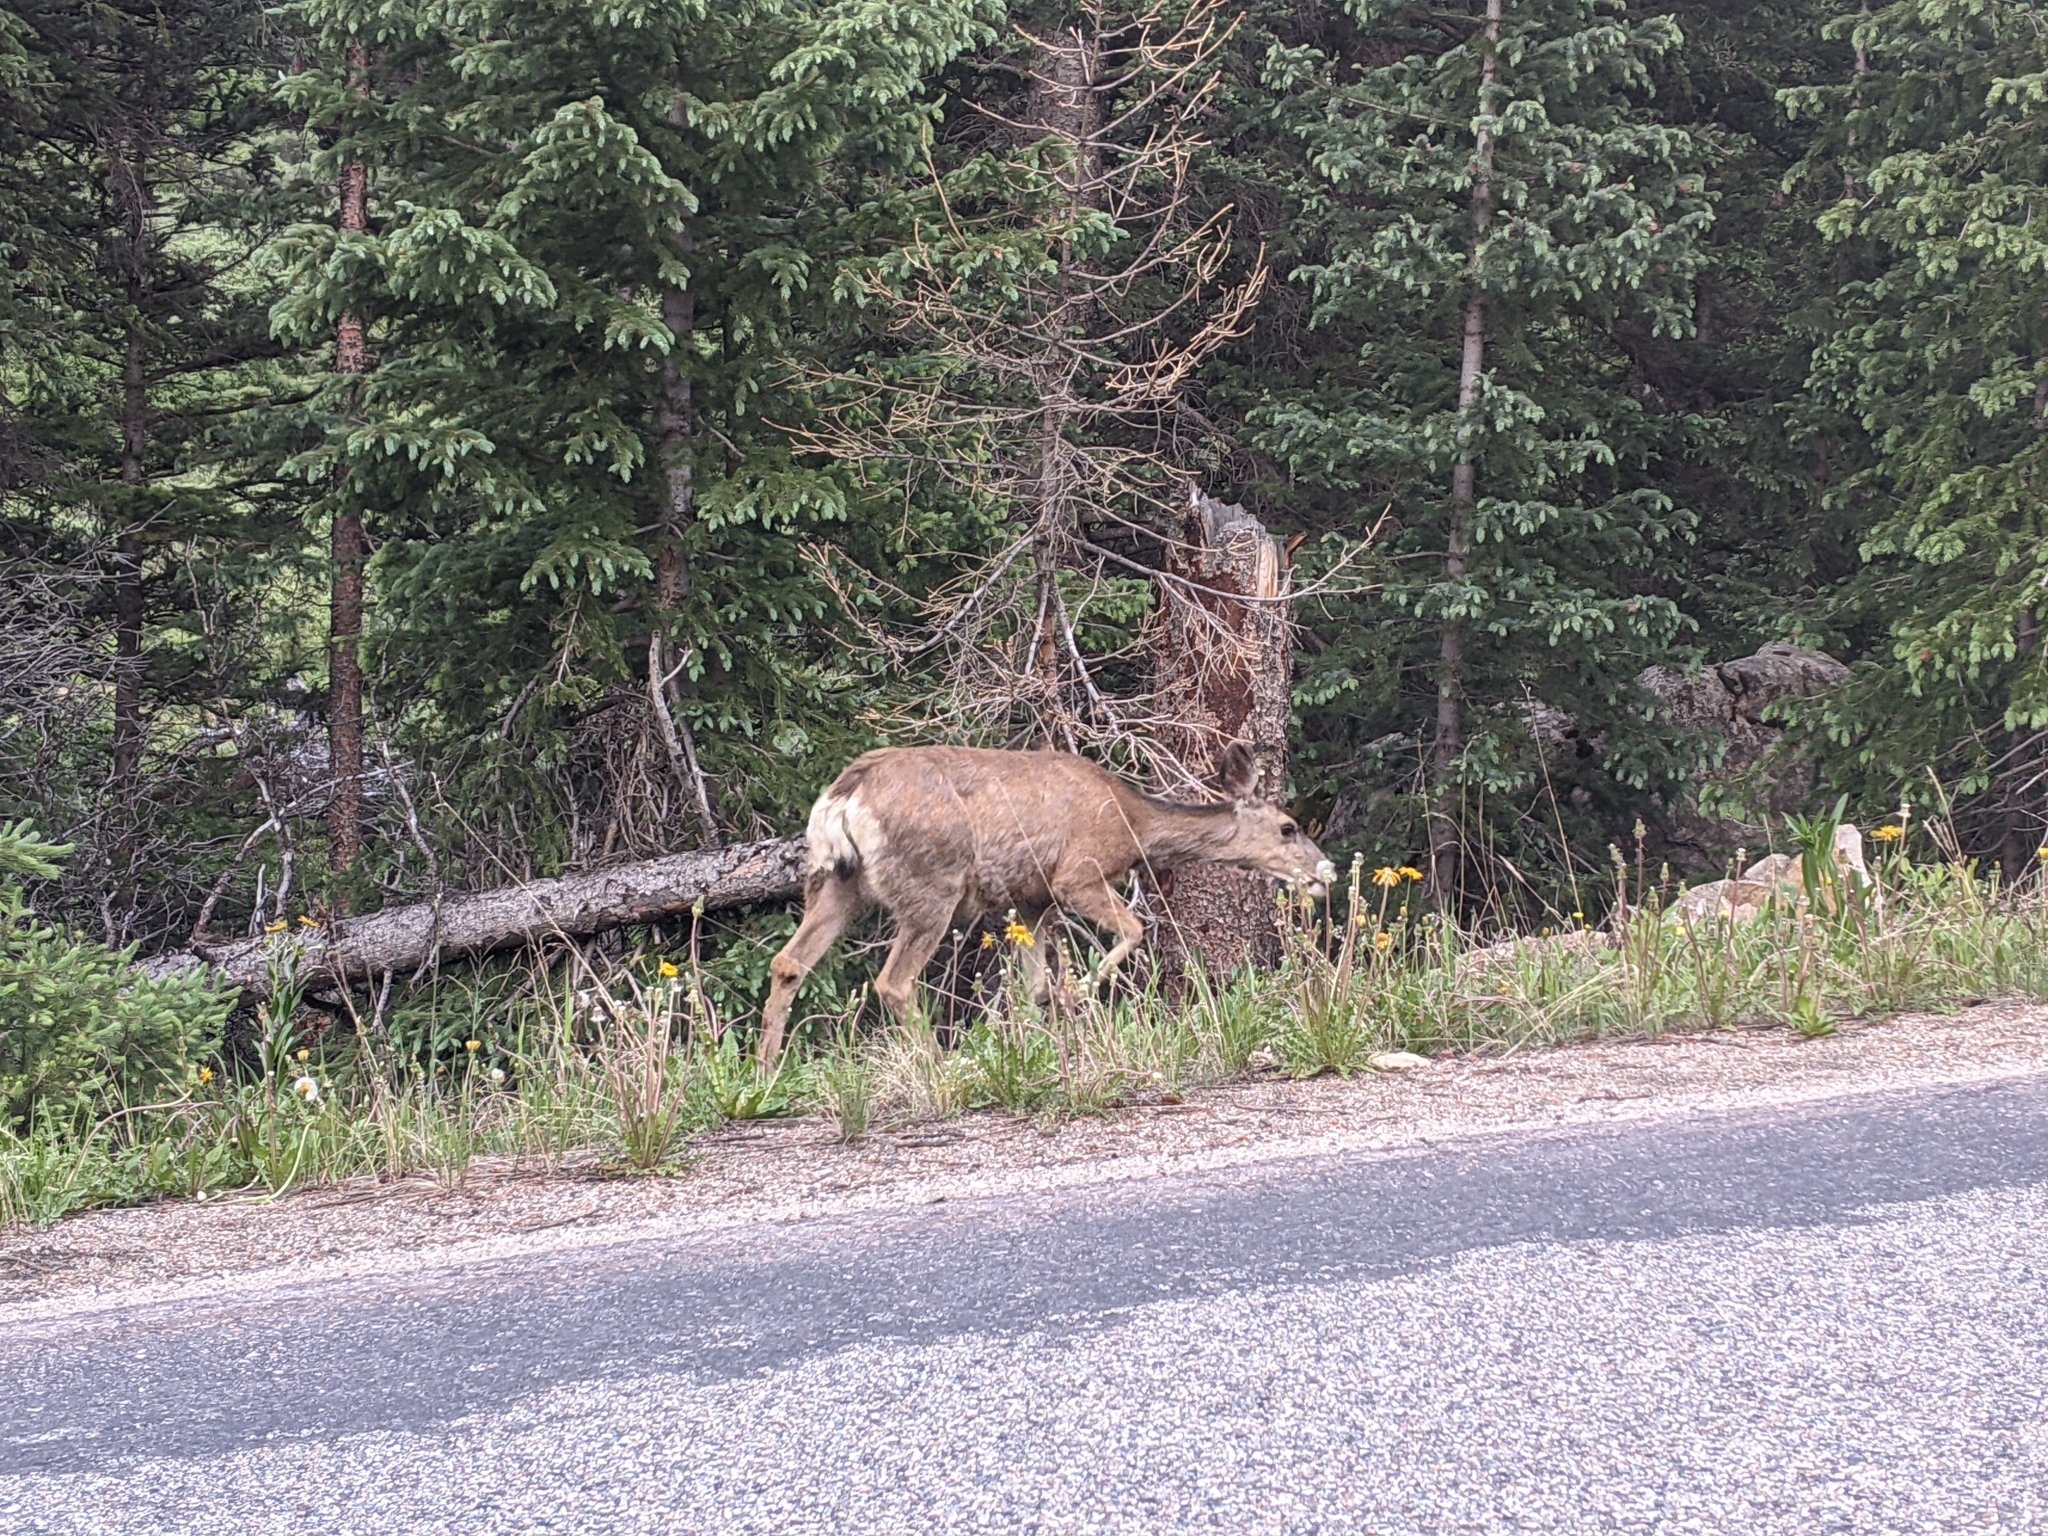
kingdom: Animalia
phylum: Chordata
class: Mammalia
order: Artiodactyla
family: Cervidae
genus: Odocoileus
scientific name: Odocoileus hemionus
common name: Mule deer
